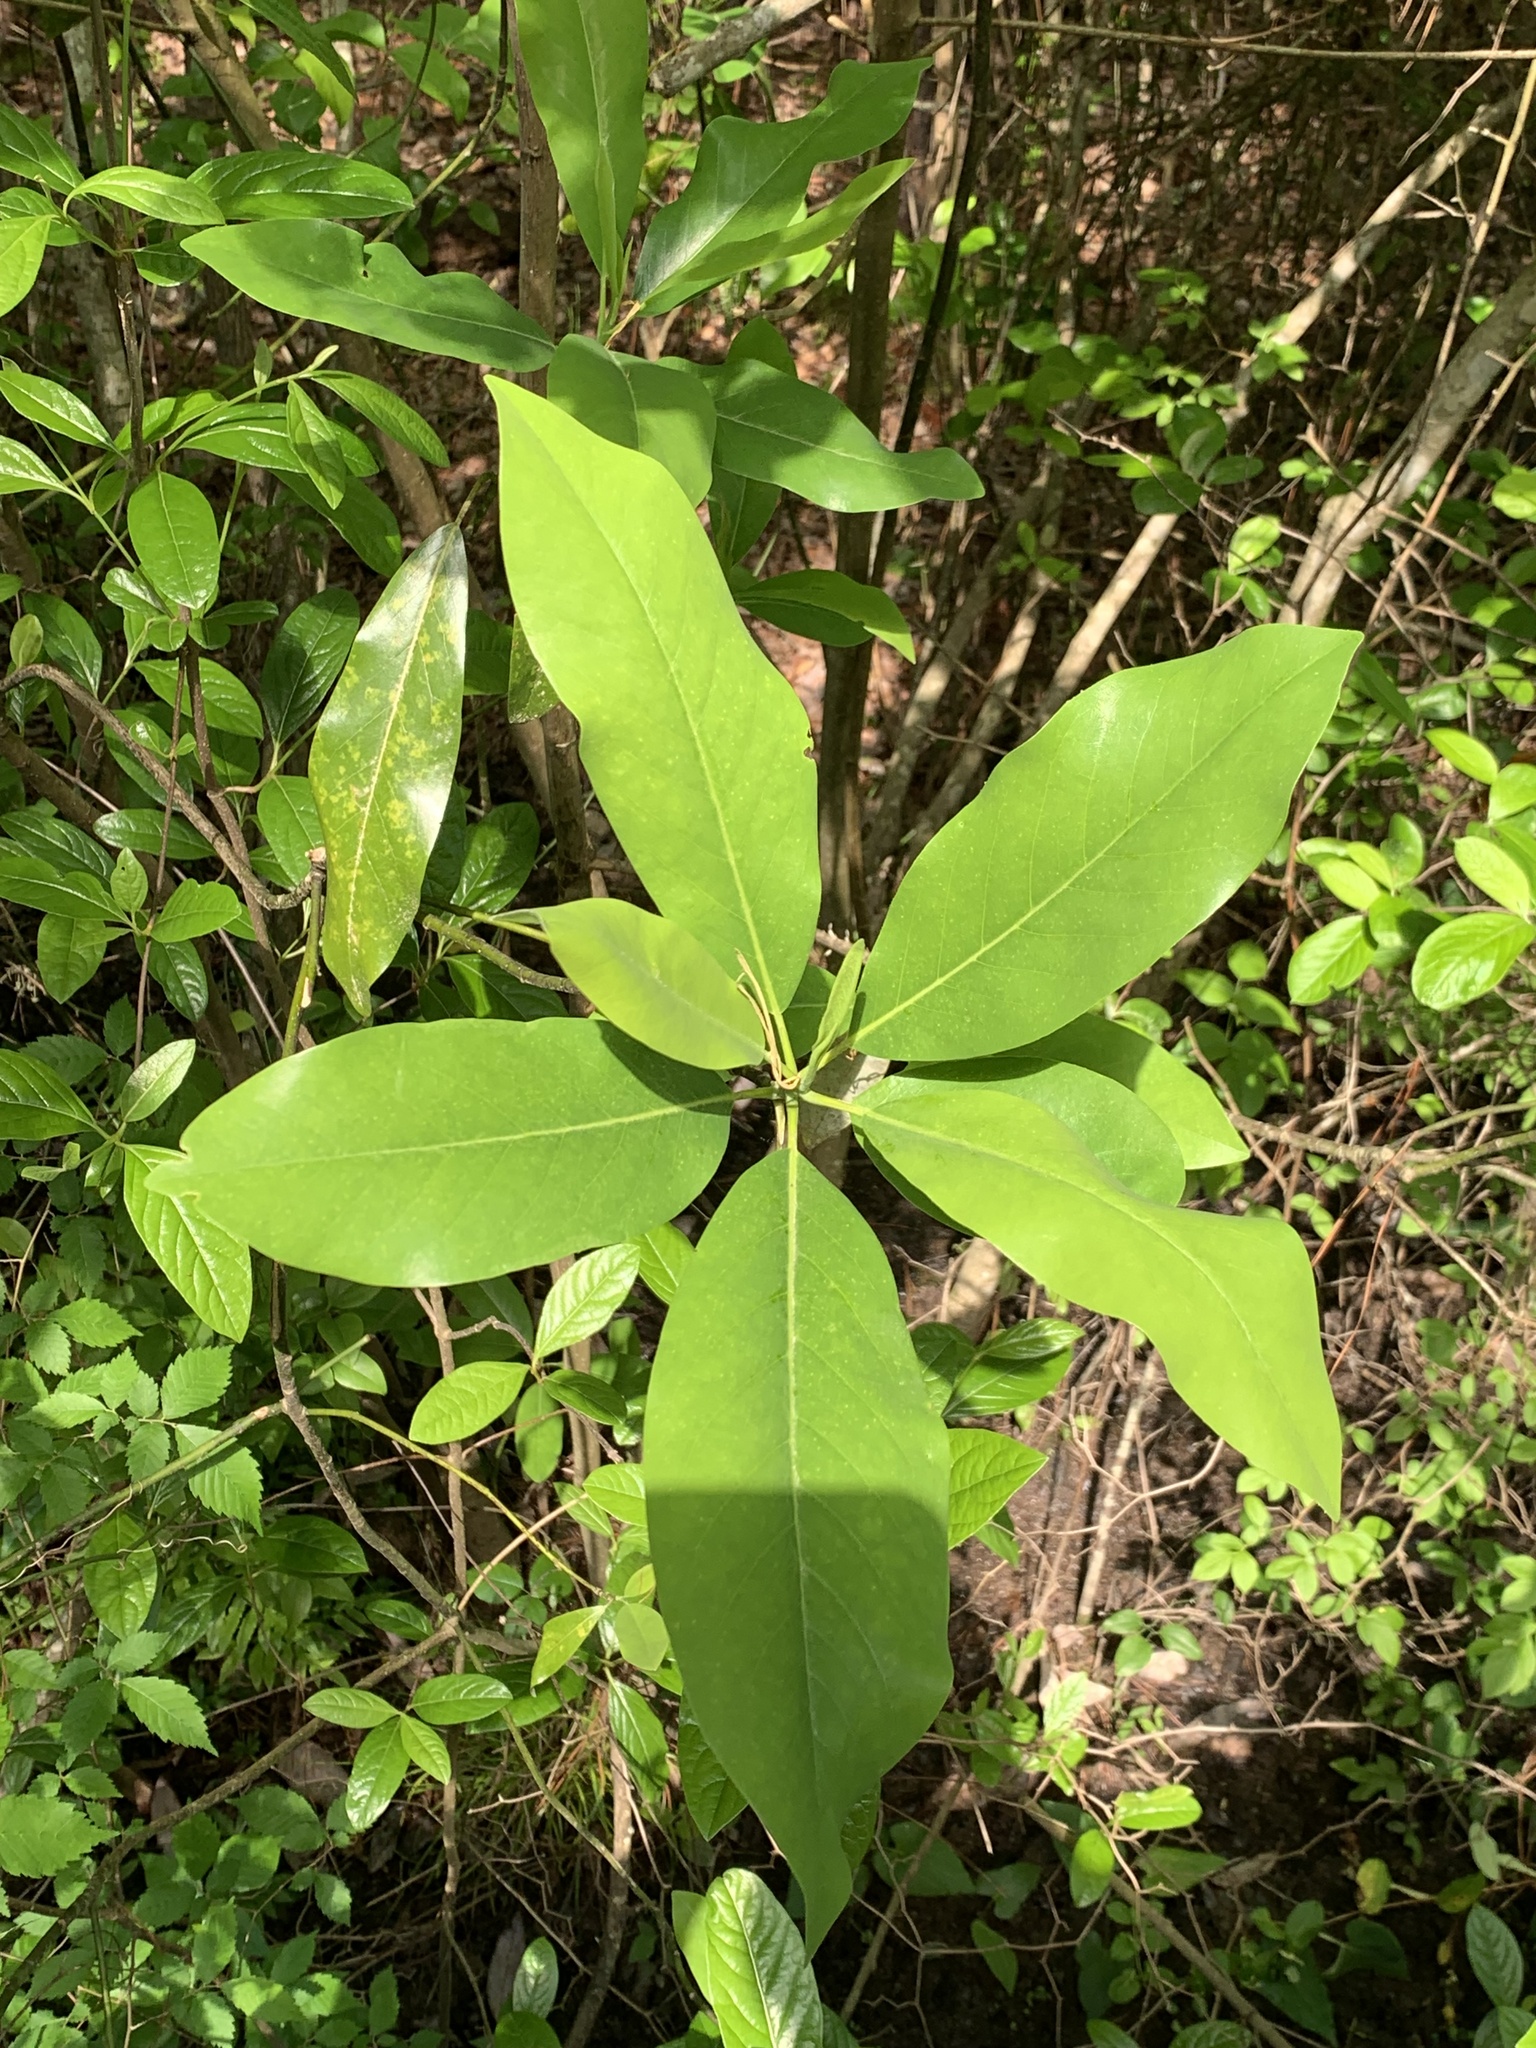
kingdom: Plantae
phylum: Tracheophyta
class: Magnoliopsida
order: Magnoliales
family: Magnoliaceae
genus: Magnolia
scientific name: Magnolia virginiana
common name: Swamp bay
